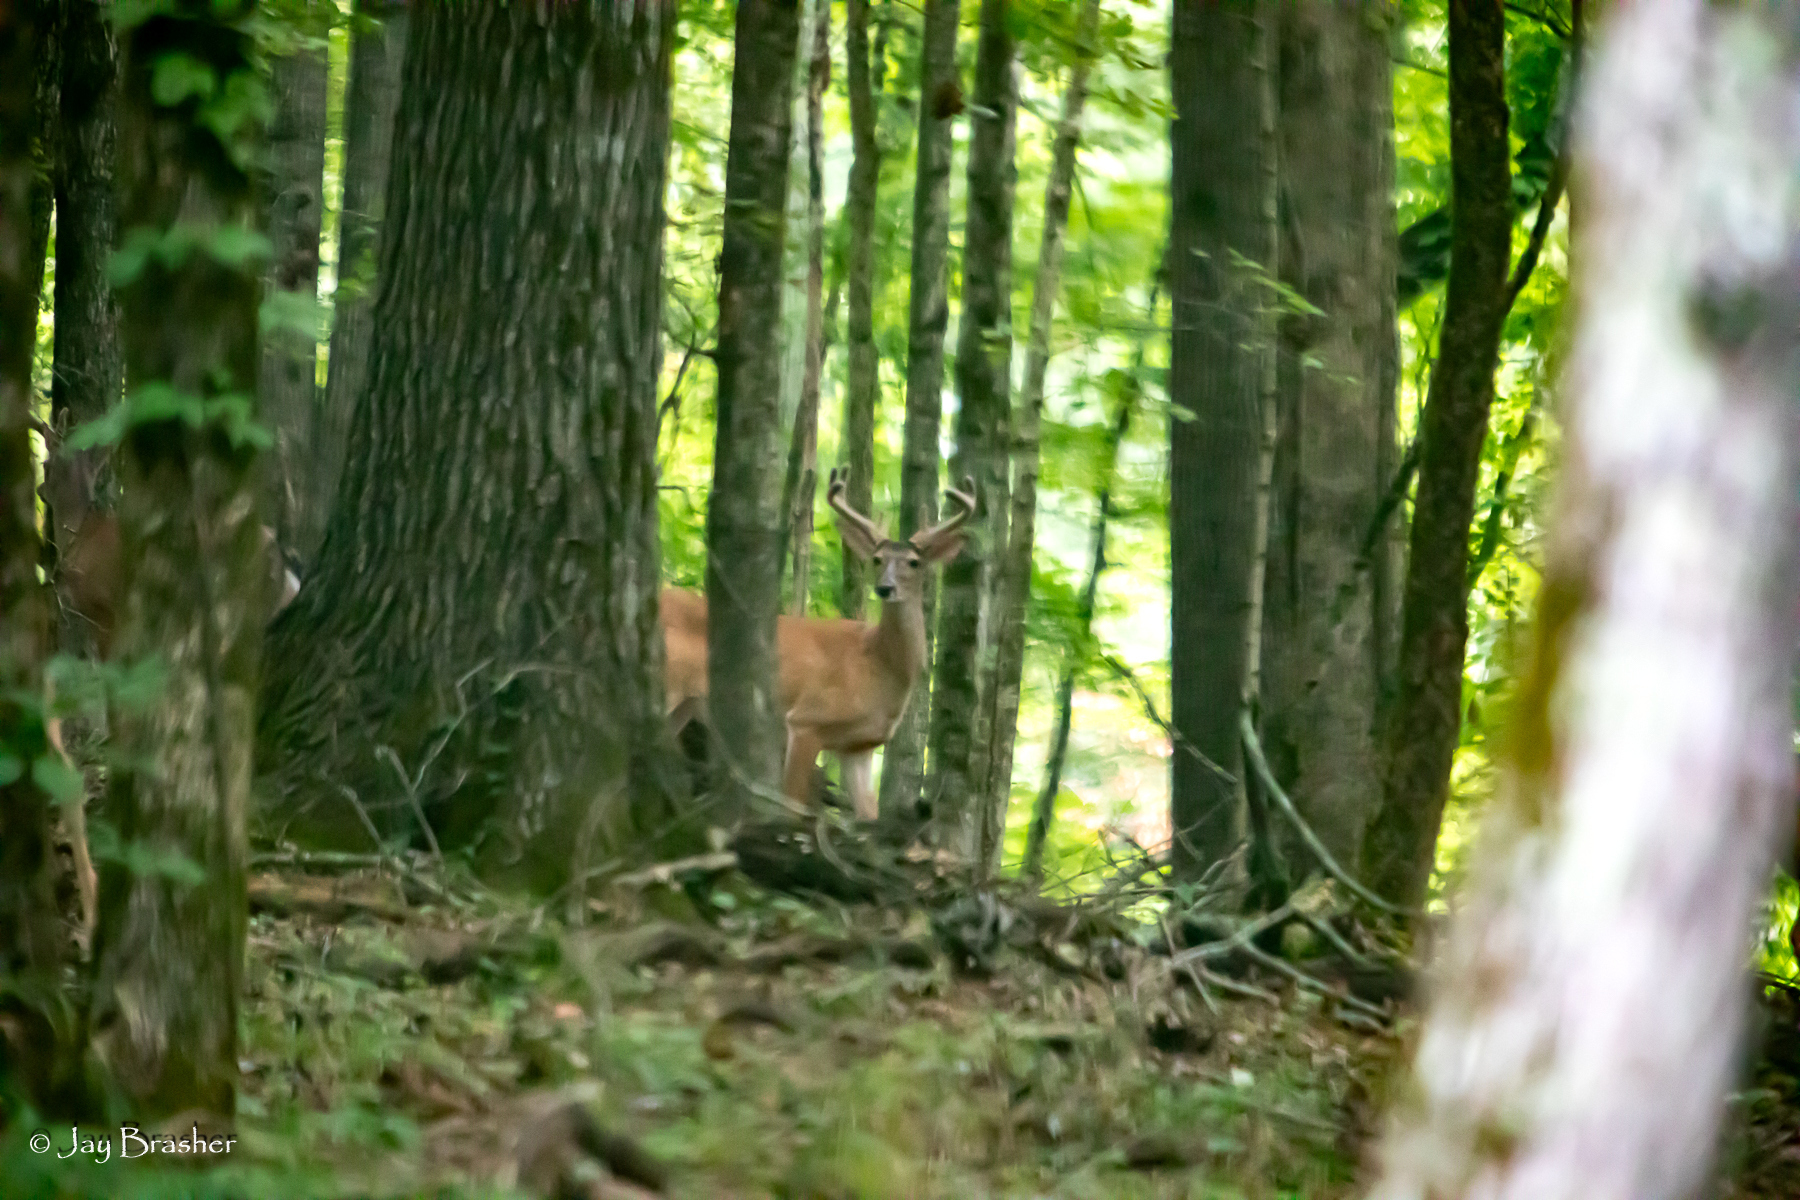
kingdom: Animalia
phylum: Chordata
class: Mammalia
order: Artiodactyla
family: Cervidae
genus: Odocoileus
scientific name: Odocoileus virginianus
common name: White-tailed deer
